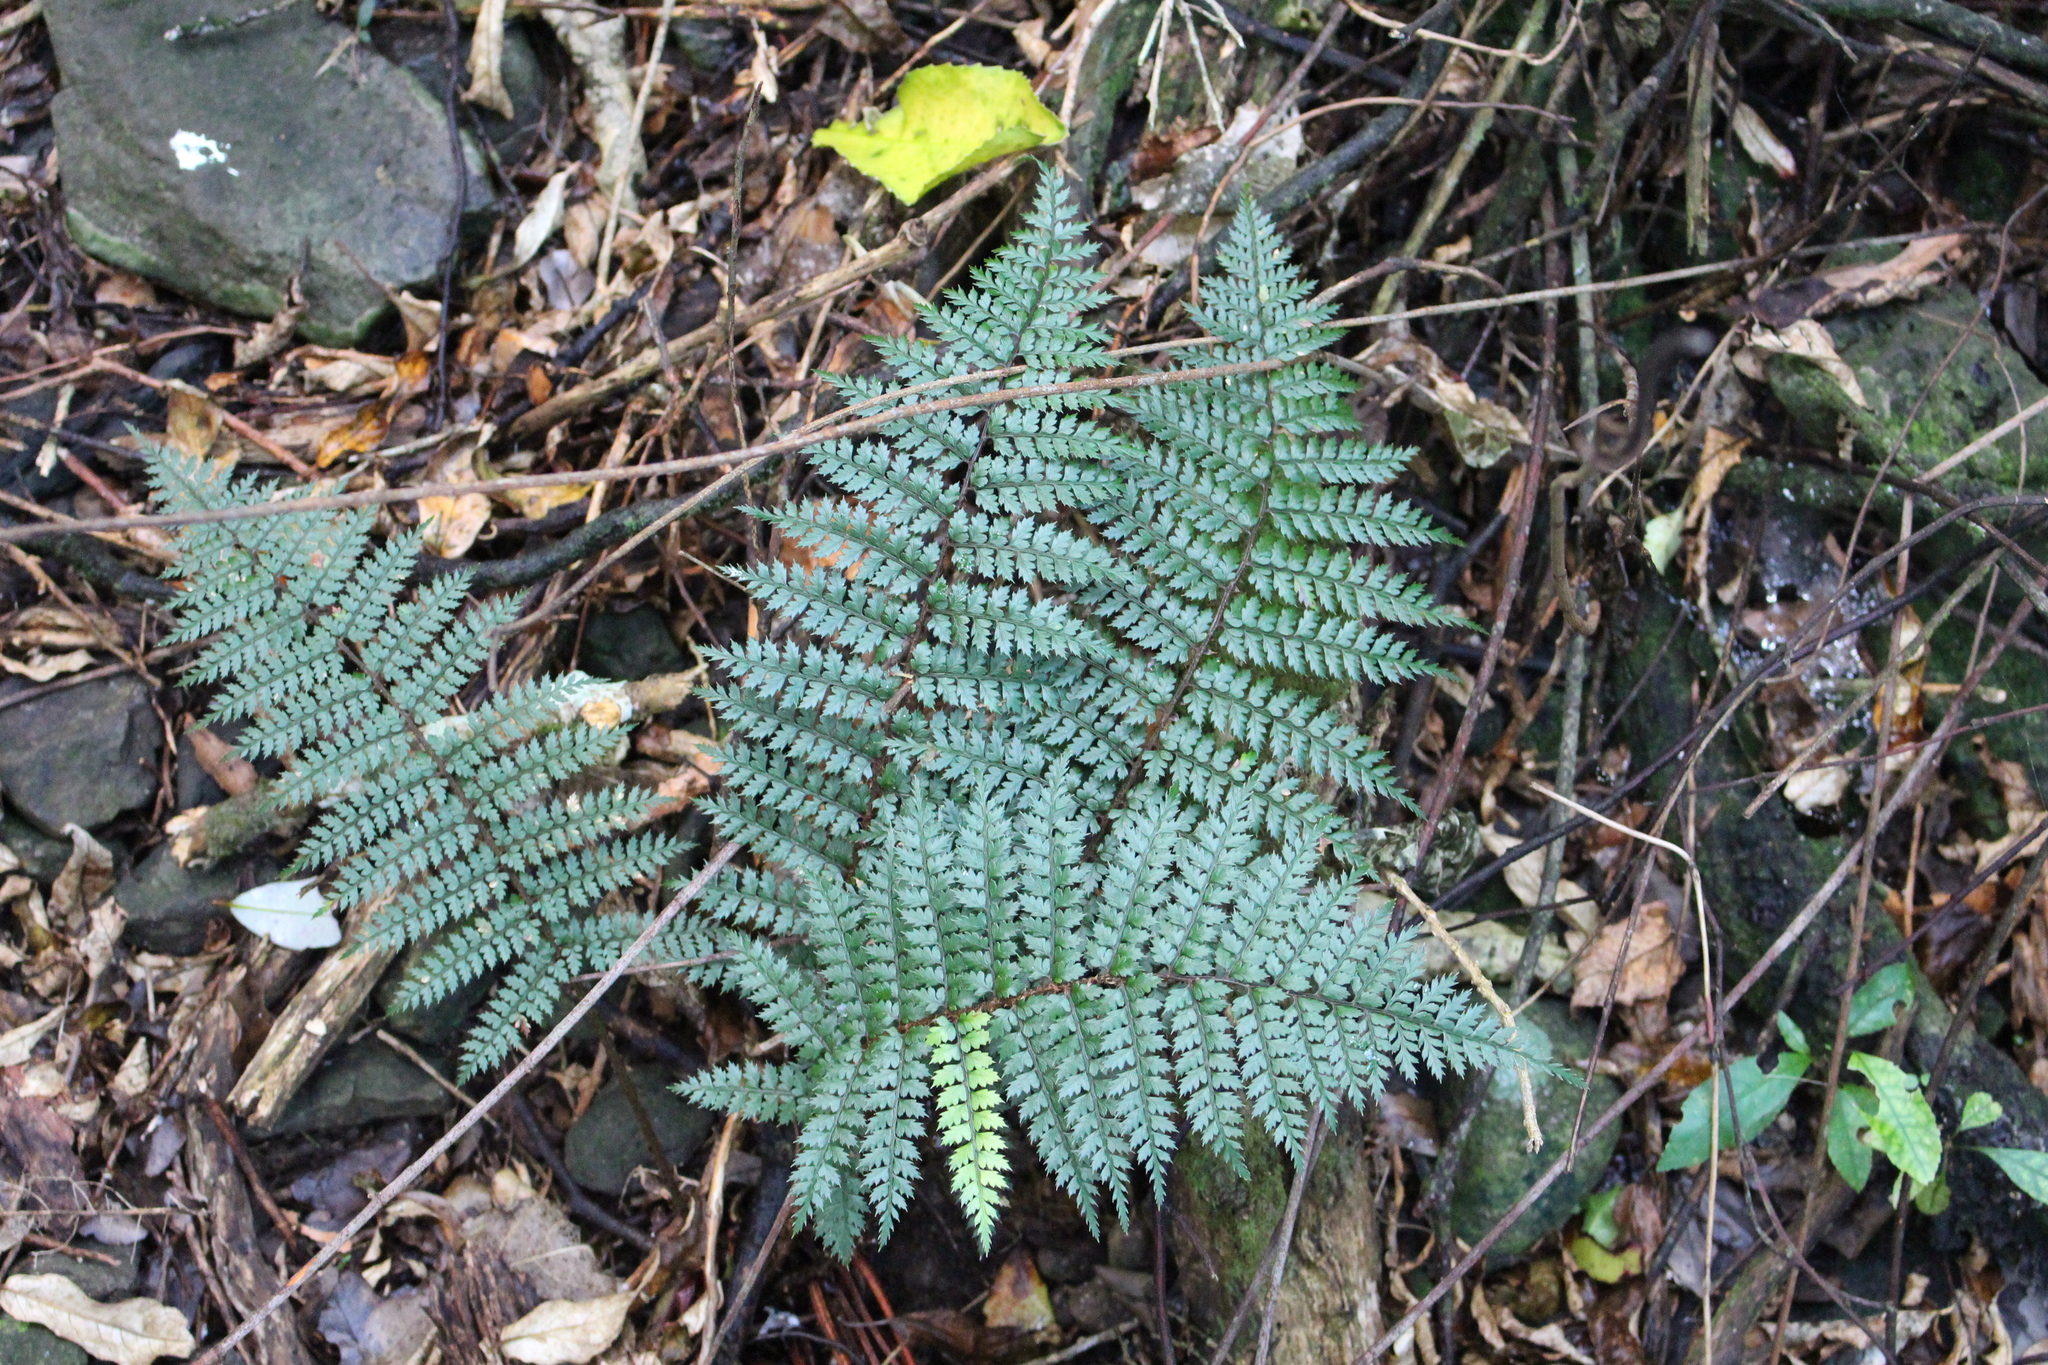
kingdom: Plantae
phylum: Tracheophyta
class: Polypodiopsida
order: Polypodiales
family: Dryopteridaceae
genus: Polystichum
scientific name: Polystichum vestitum
